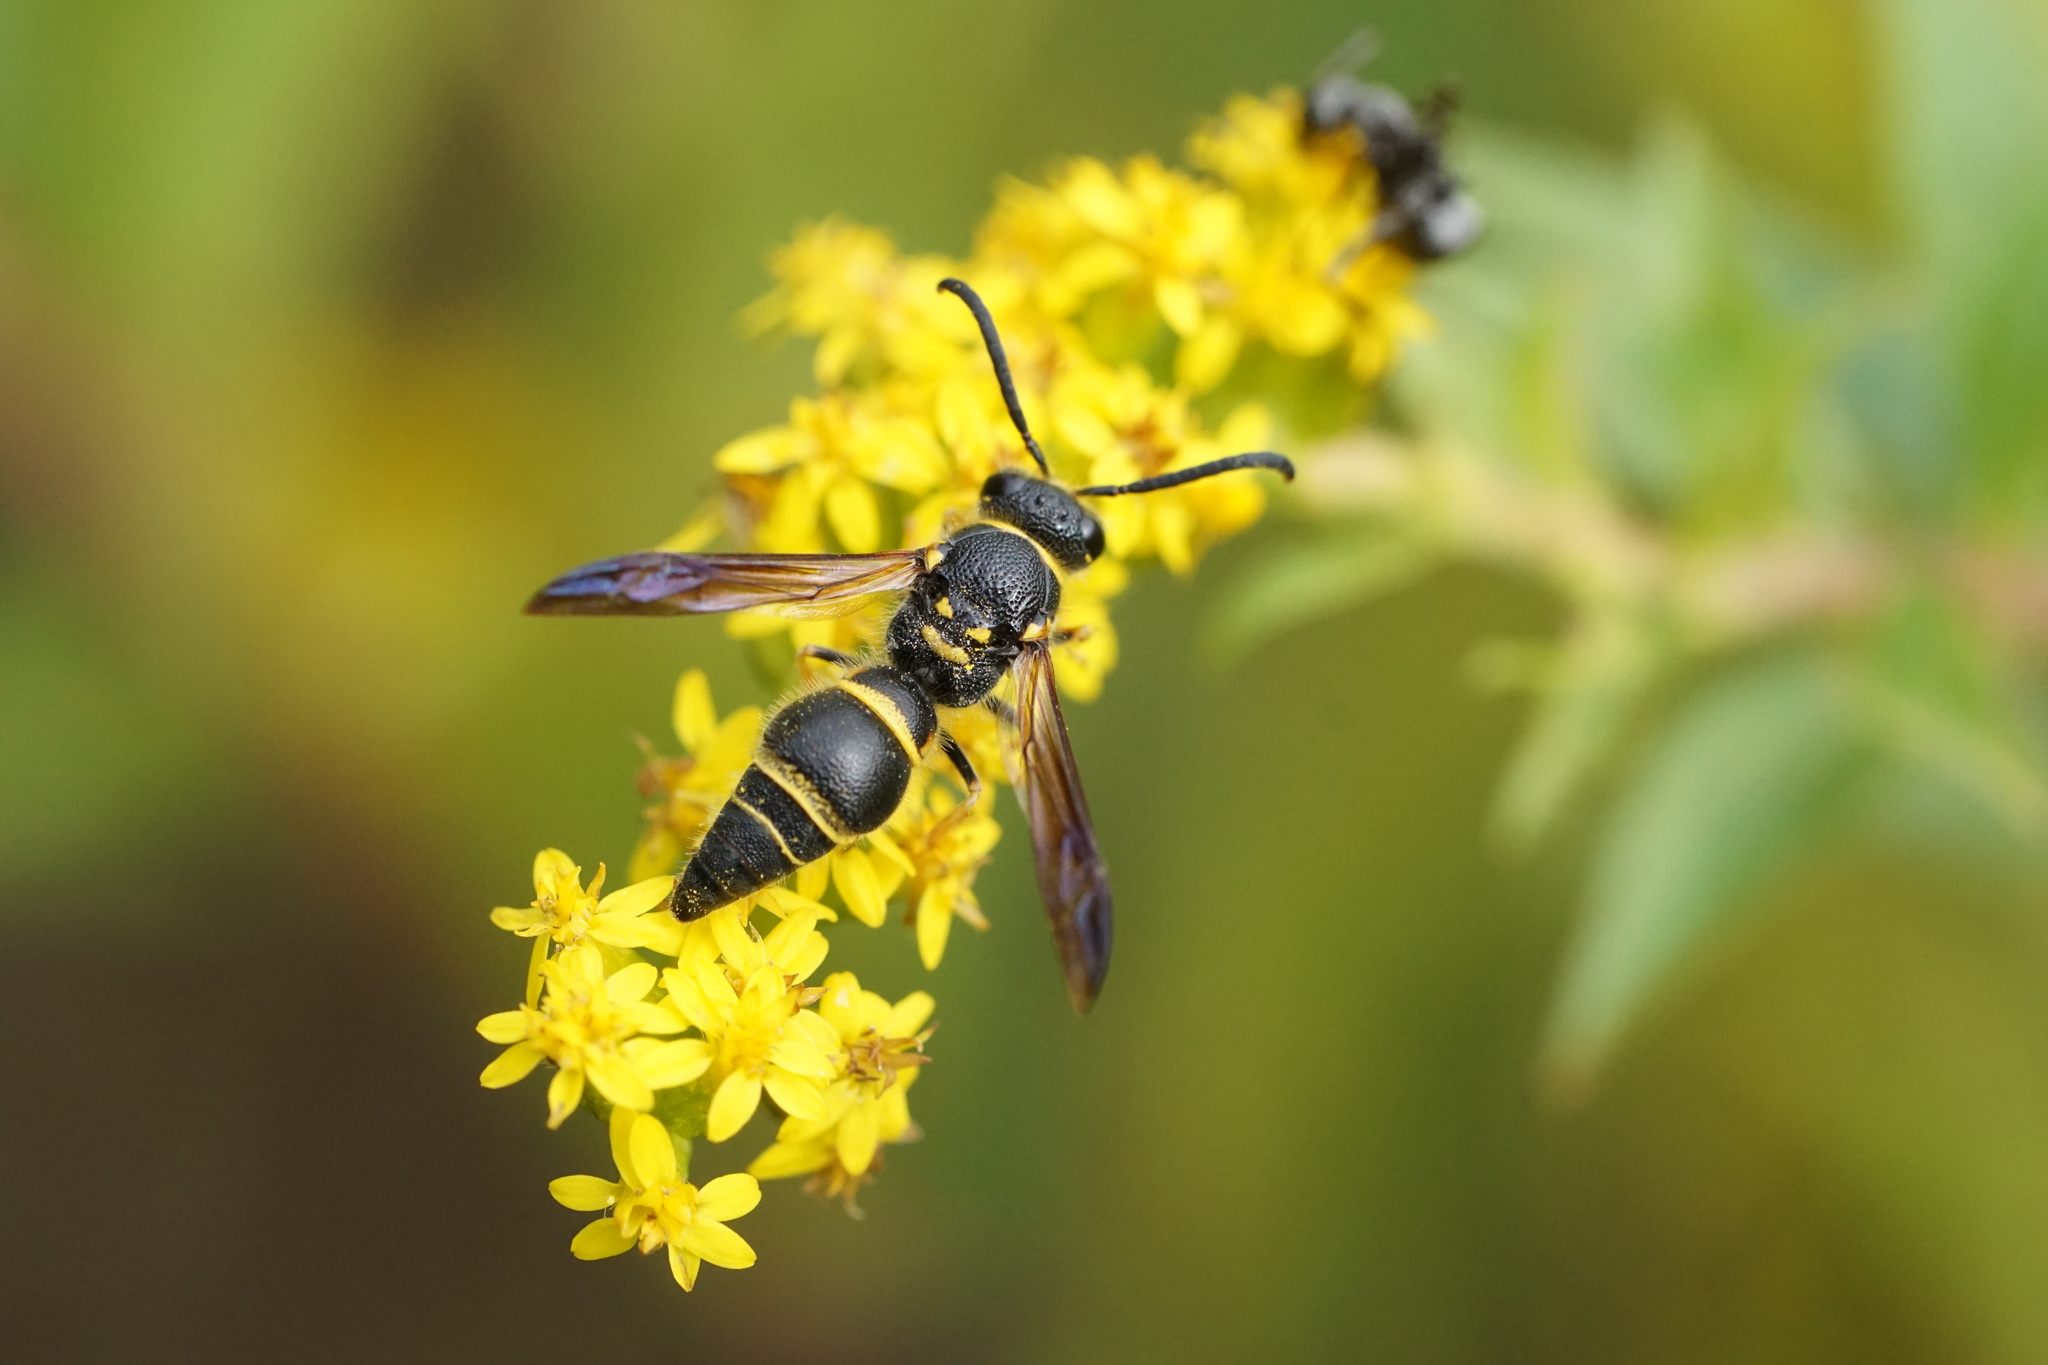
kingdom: Animalia
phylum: Arthropoda
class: Insecta
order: Hymenoptera
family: Vespidae
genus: Ancistrocerus
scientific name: Ancistrocerus campestris
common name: Smiling mason wasp
